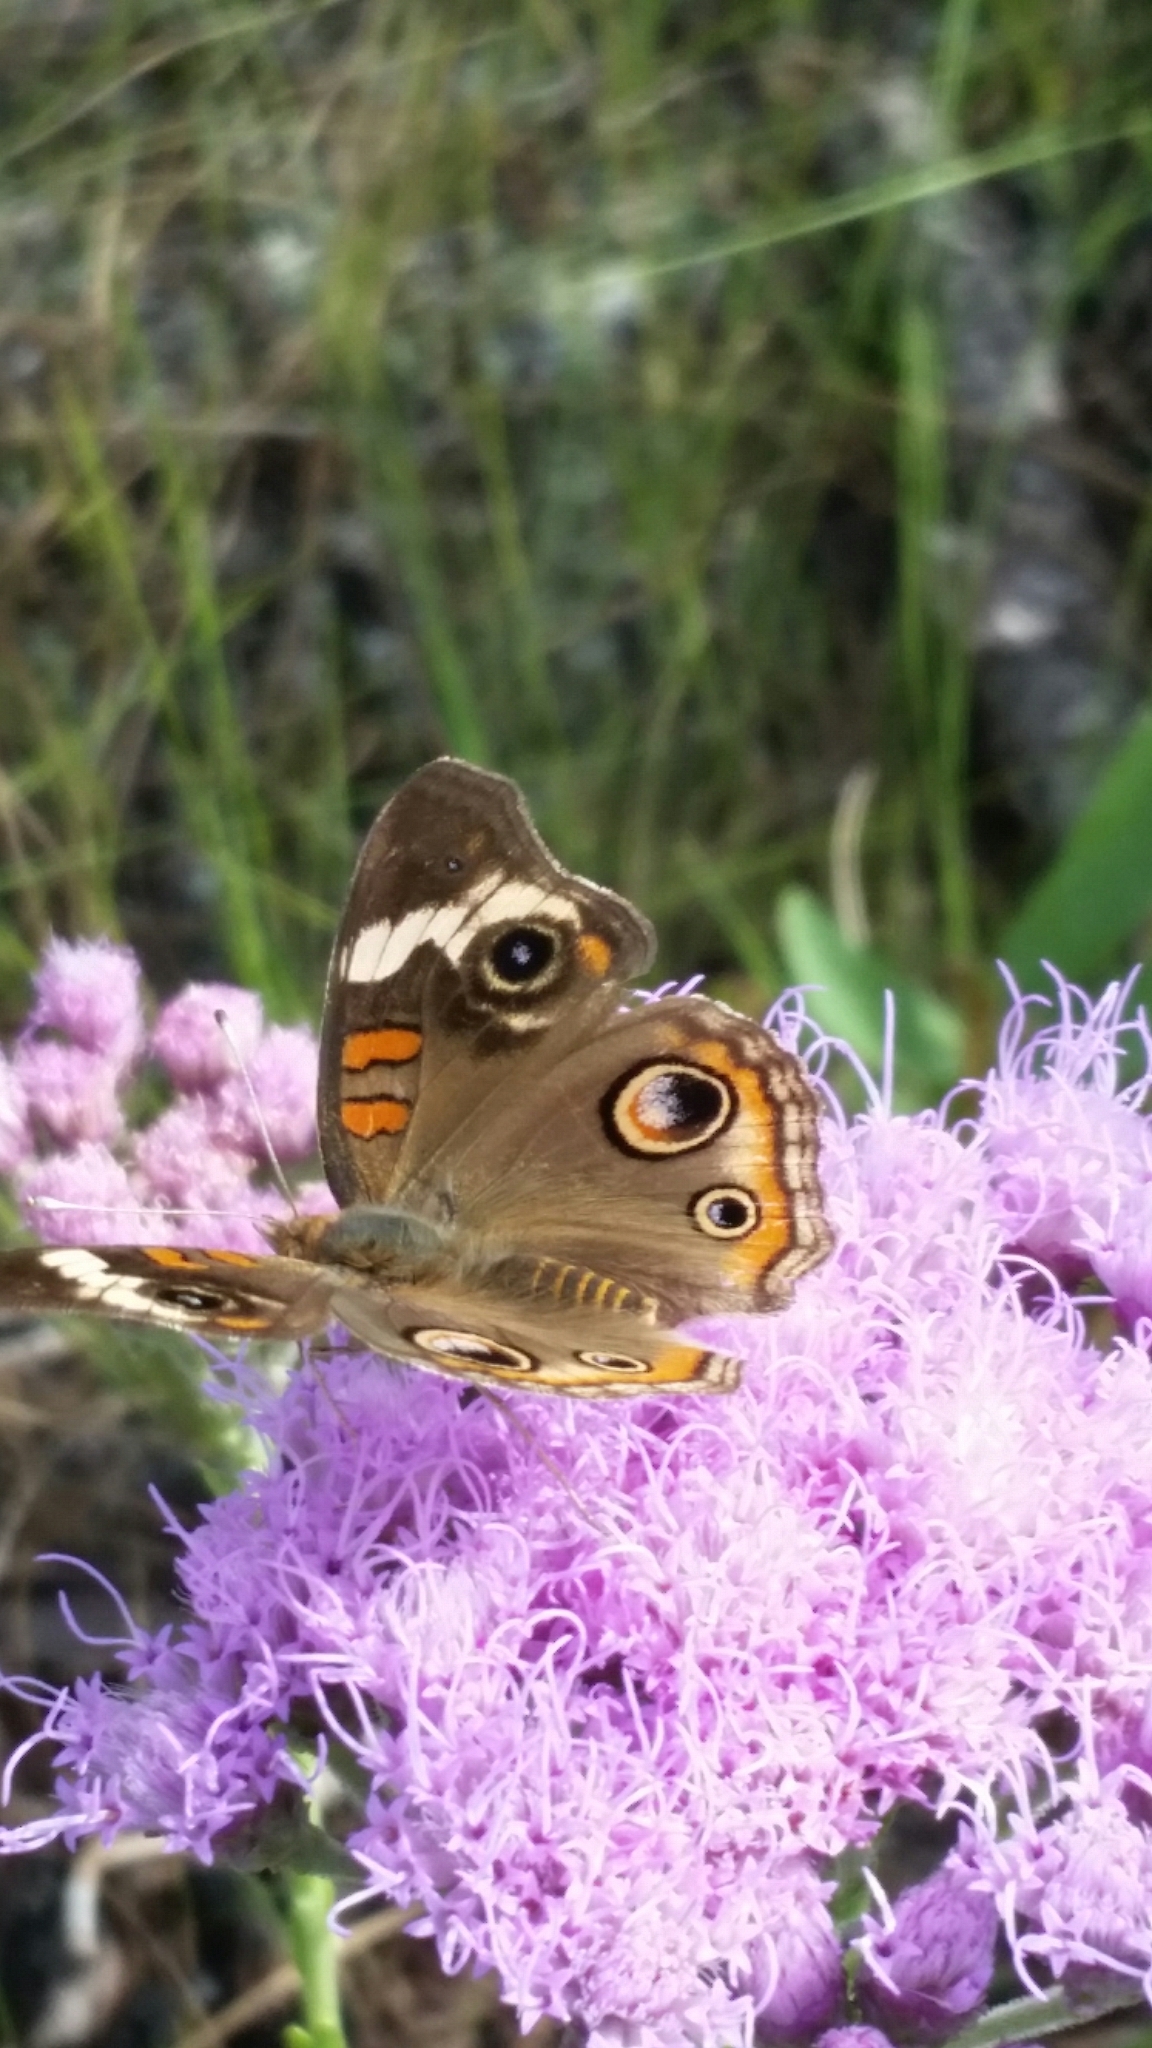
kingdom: Animalia
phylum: Arthropoda
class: Insecta
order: Lepidoptera
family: Nymphalidae
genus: Junonia
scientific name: Junonia coenia
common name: Common buckeye
